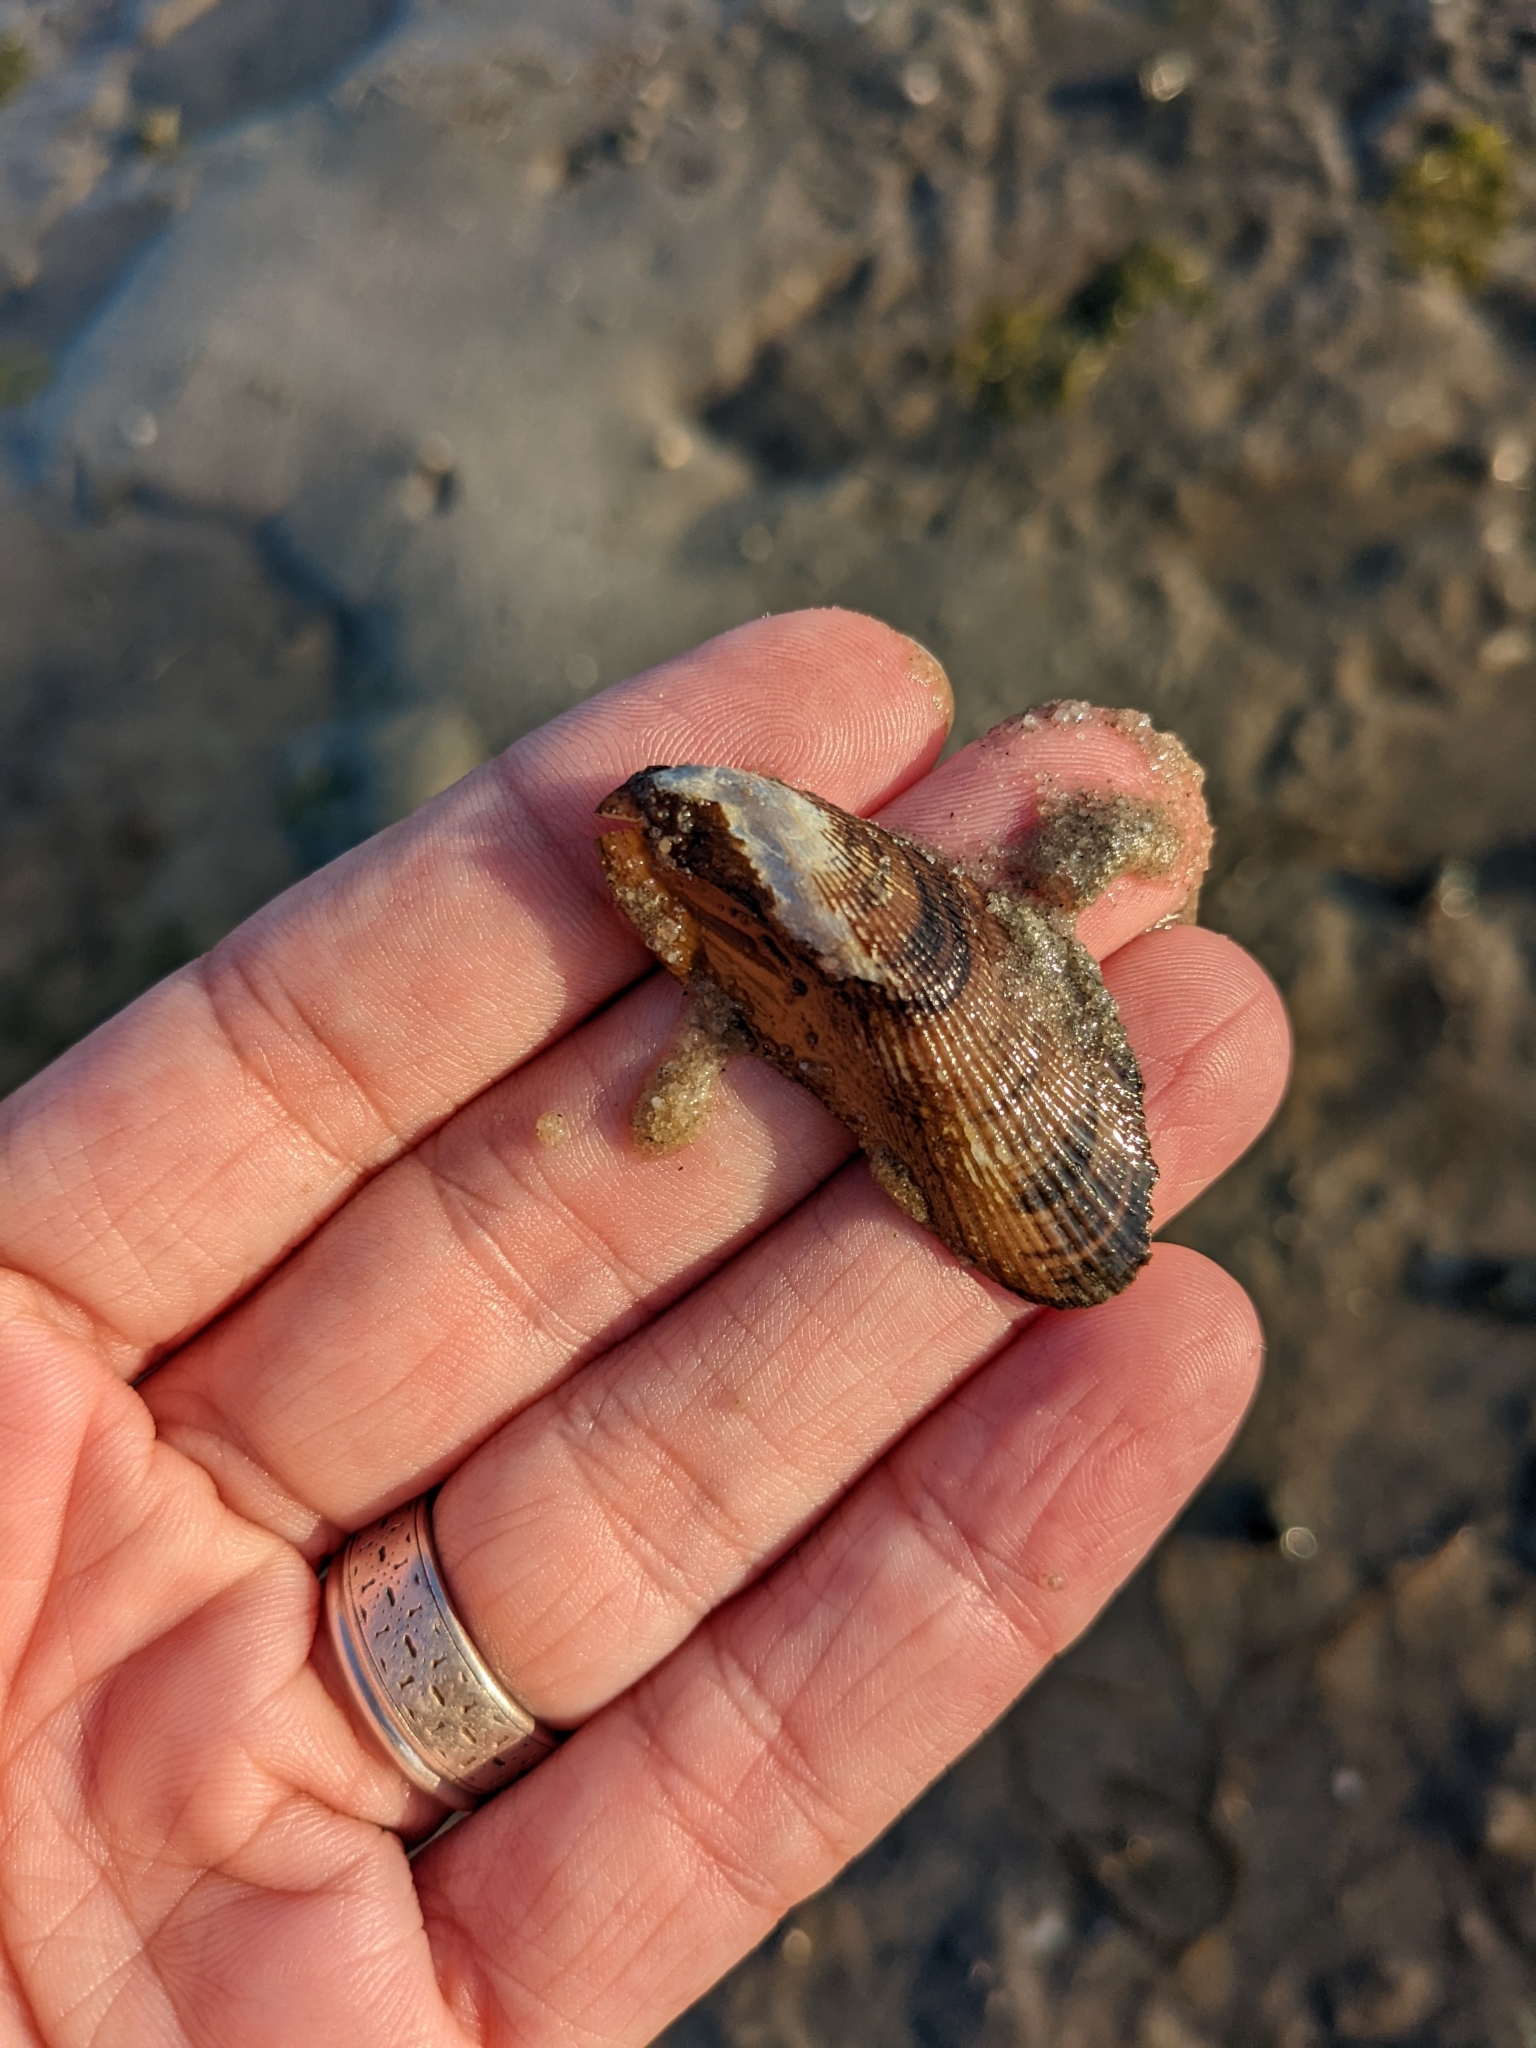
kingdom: Animalia
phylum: Mollusca
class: Bivalvia
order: Mytilida
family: Mytilidae
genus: Geukensia
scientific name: Geukensia demissa
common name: Ribbed mussel
